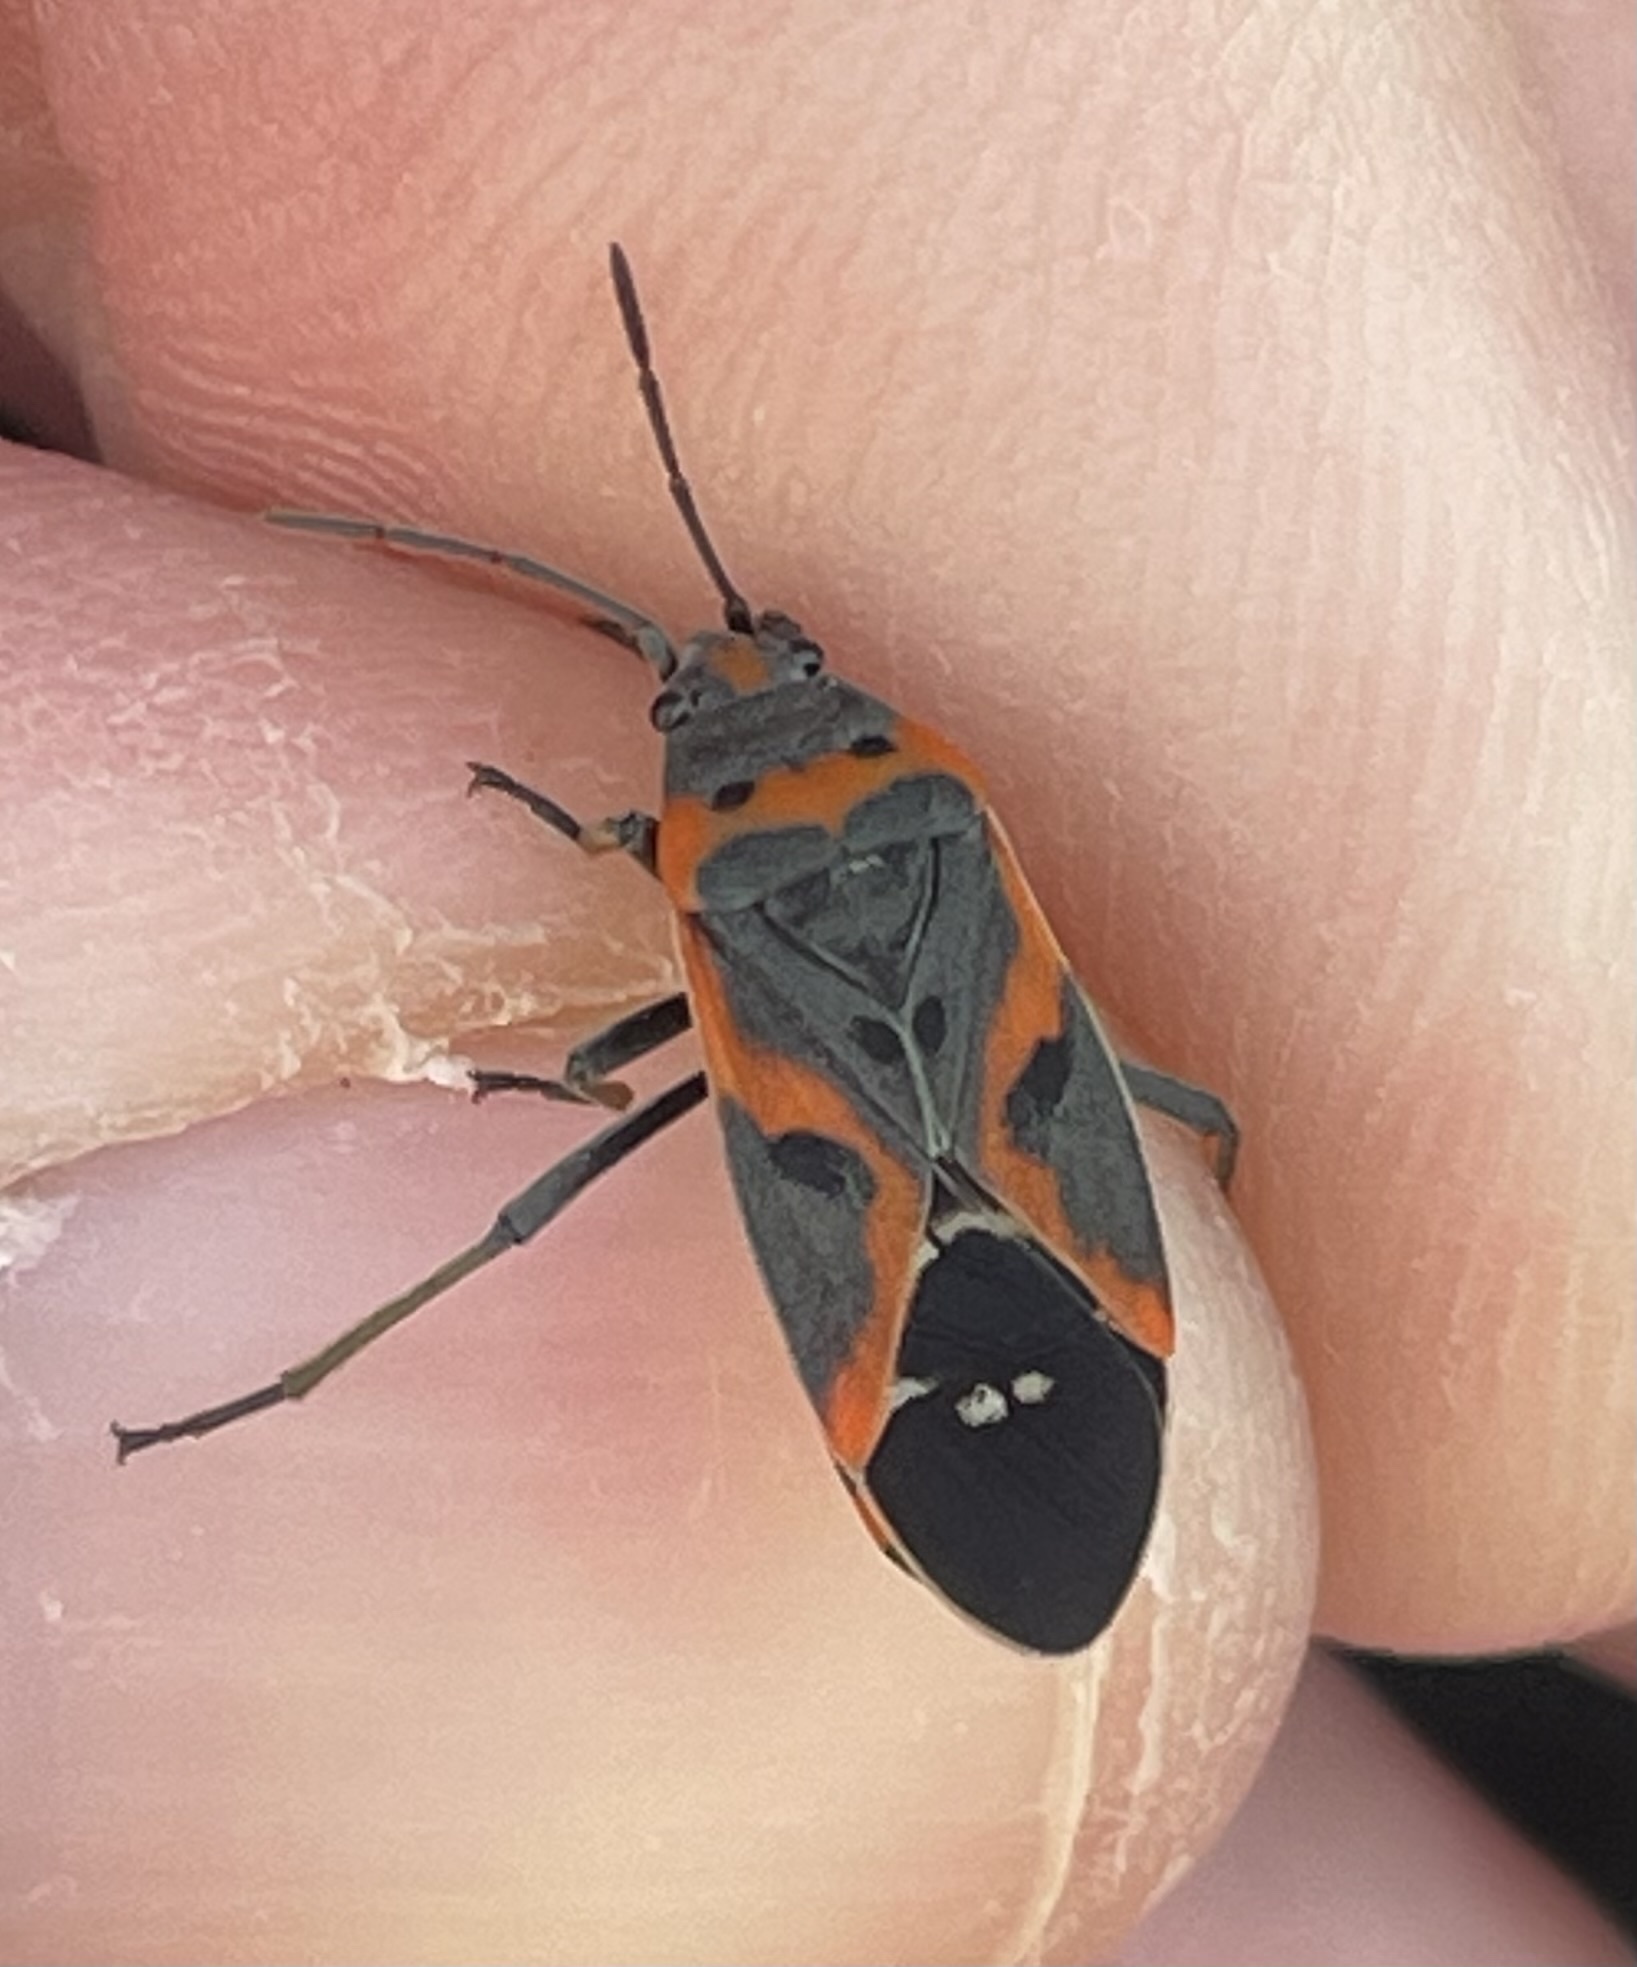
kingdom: Animalia
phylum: Arthropoda
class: Insecta
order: Hemiptera
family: Lygaeidae
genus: Lygaeus
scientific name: Lygaeus kalmii
